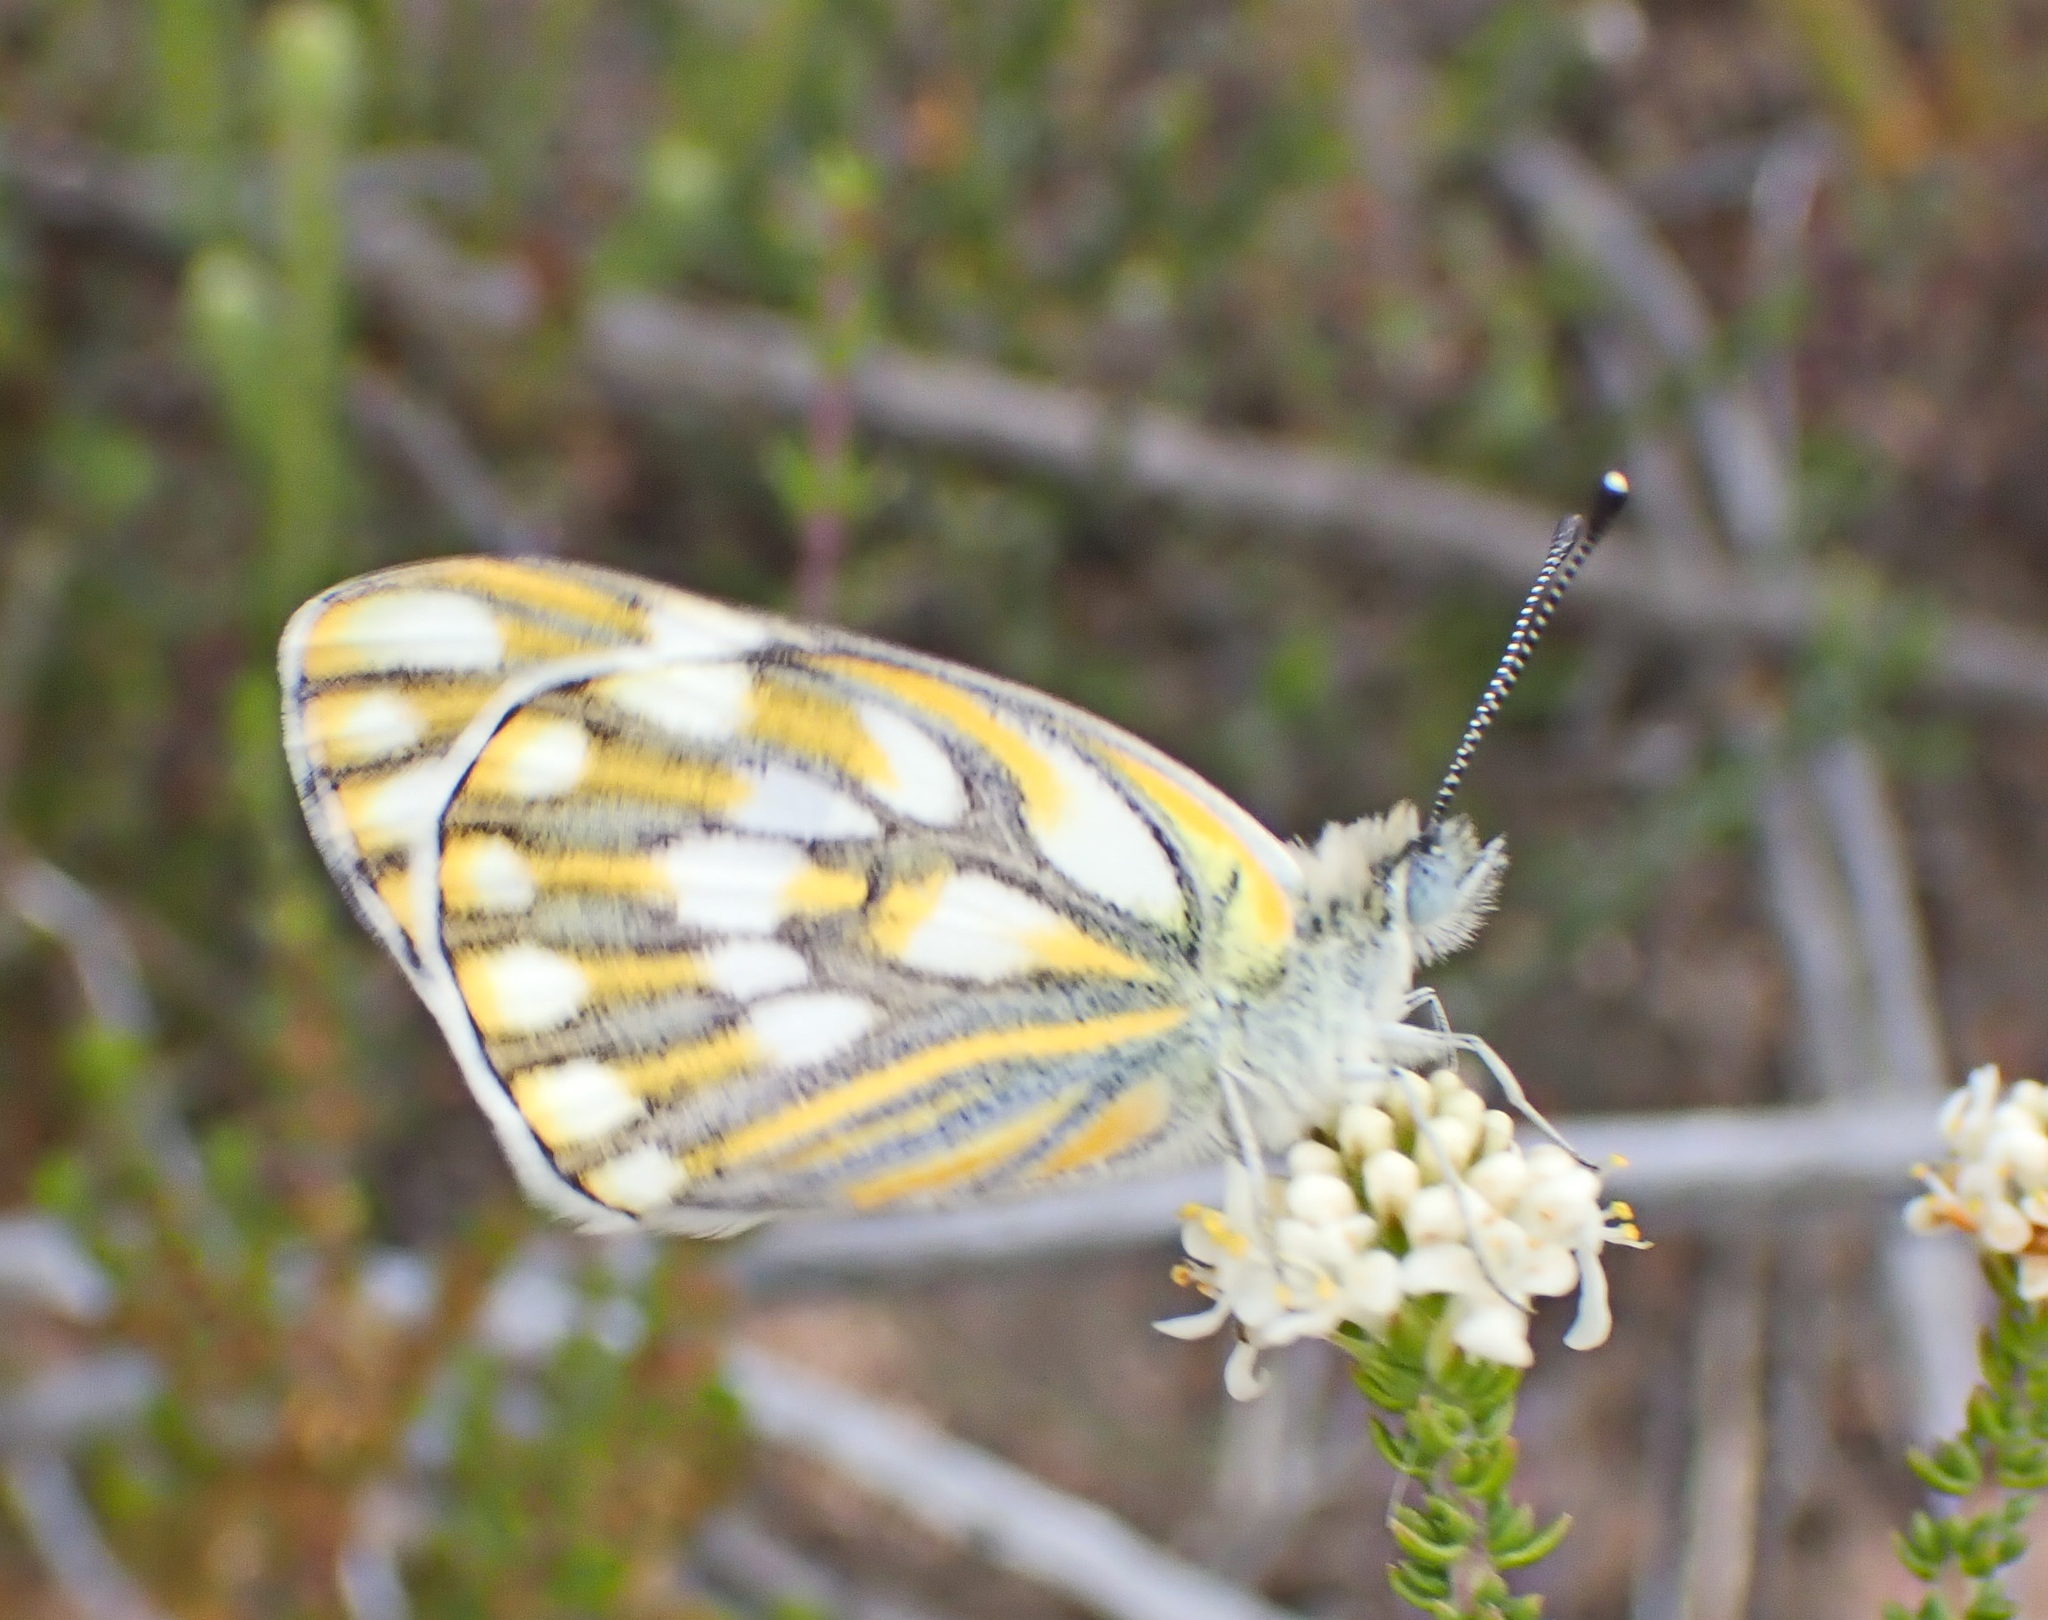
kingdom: Animalia
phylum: Arthropoda
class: Insecta
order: Lepidoptera
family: Pieridae
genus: Pontia
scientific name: Pontia helice
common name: Meadow white
